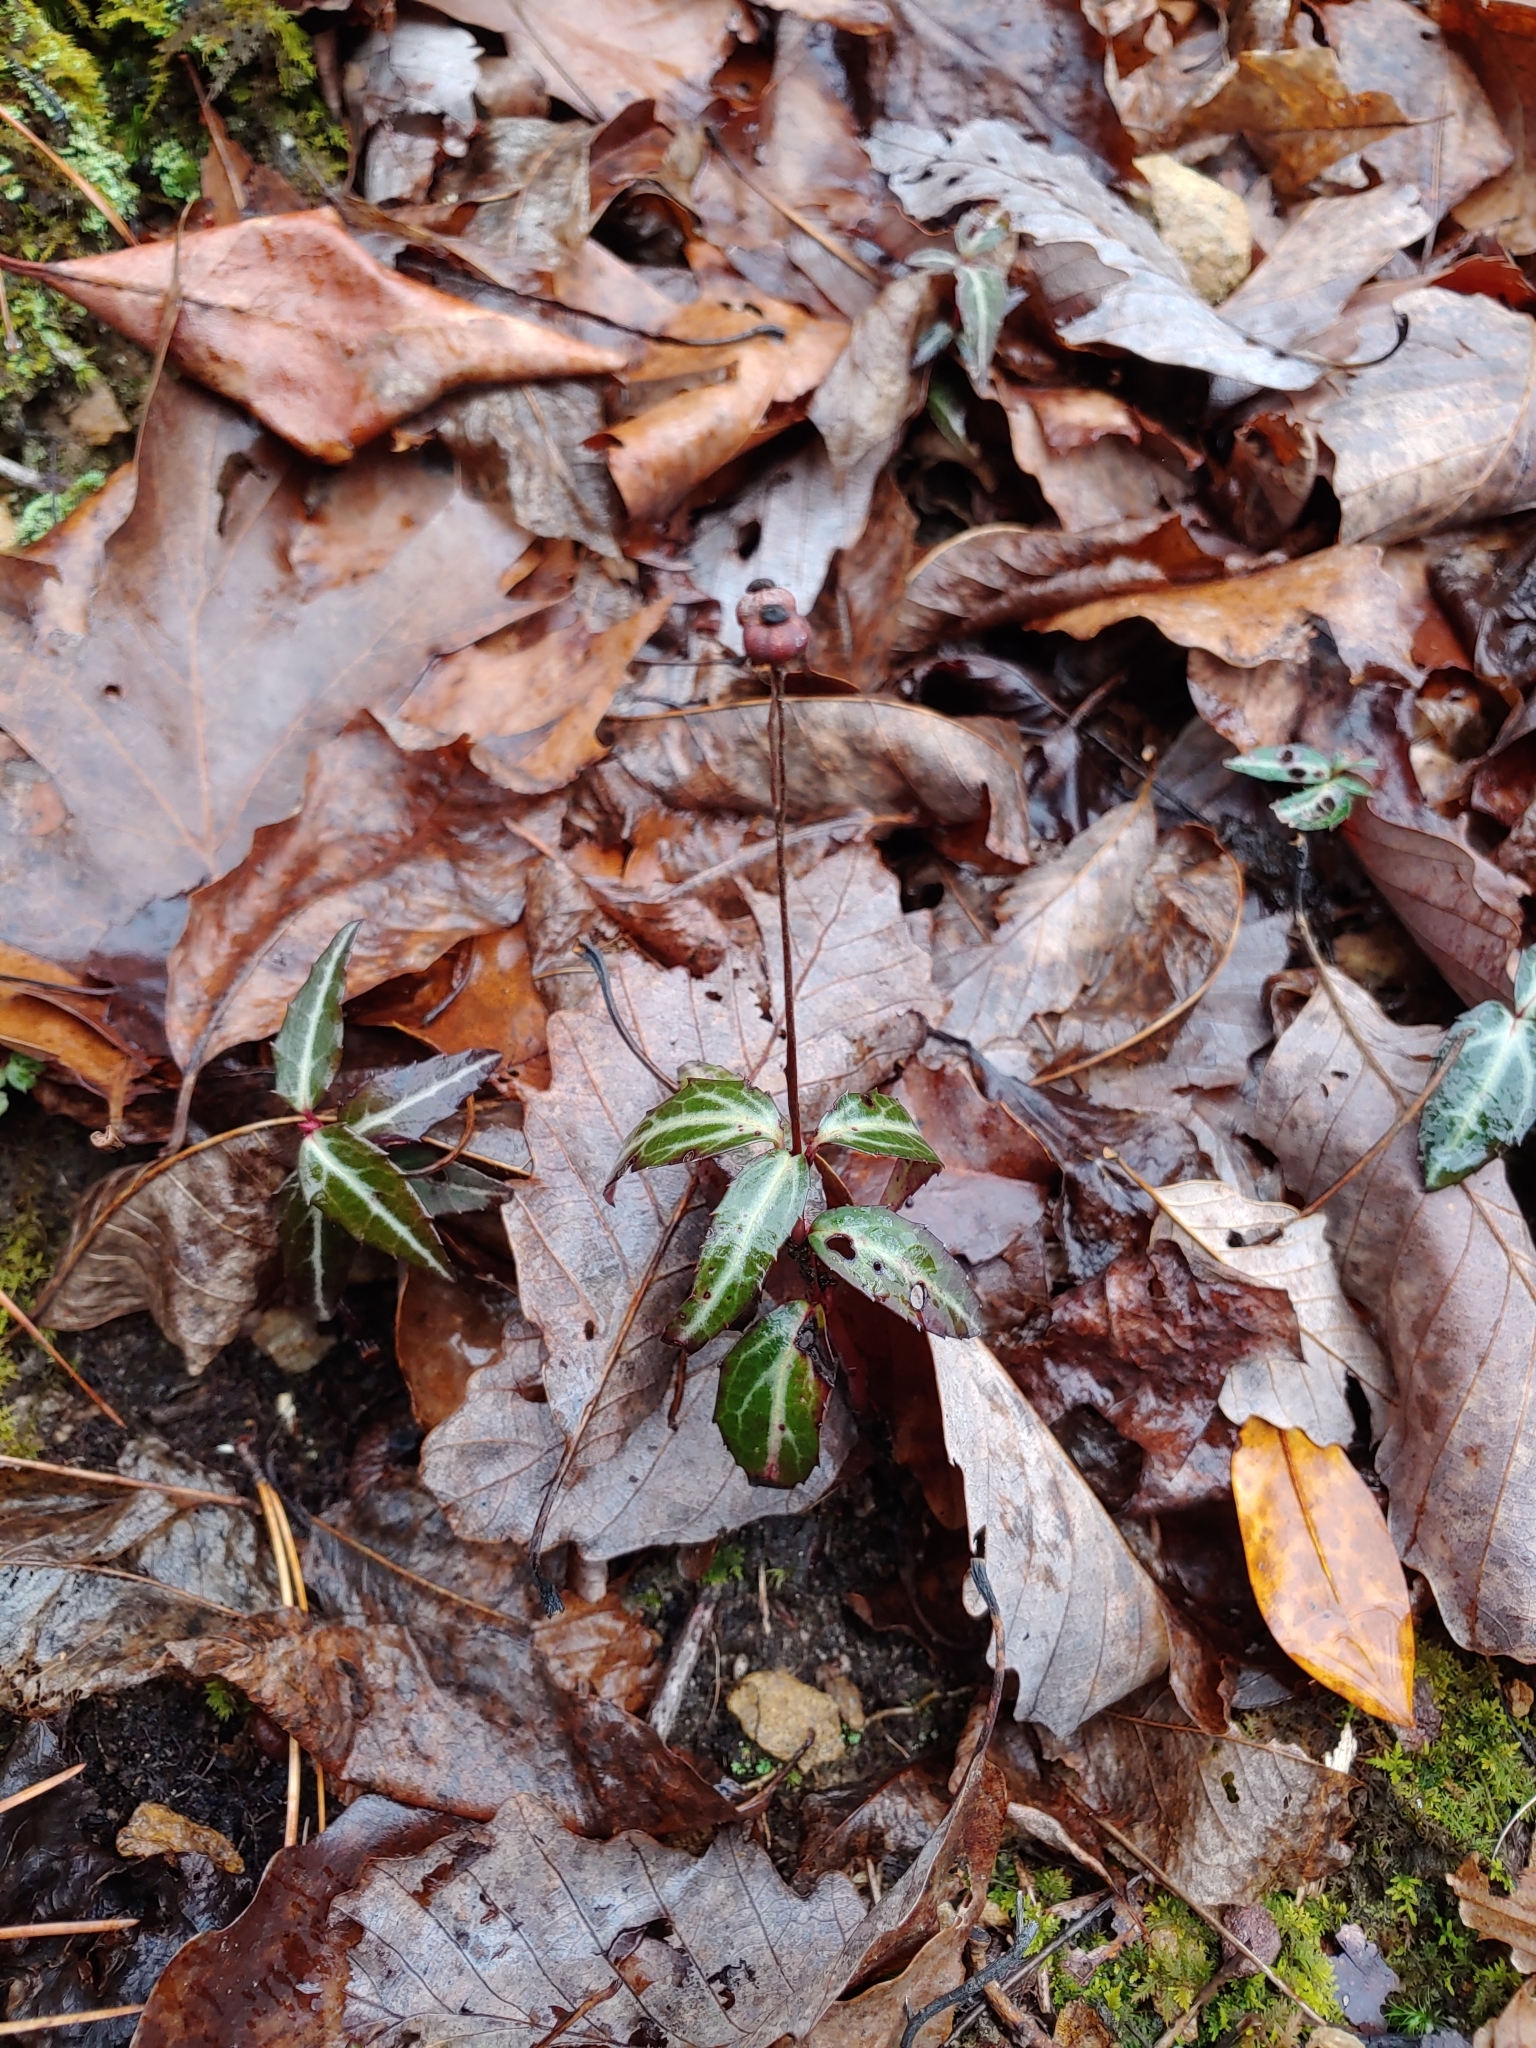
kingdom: Plantae
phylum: Tracheophyta
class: Magnoliopsida
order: Ericales
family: Ericaceae
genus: Chimaphila
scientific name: Chimaphila maculata
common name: Spotted pipsissewa
